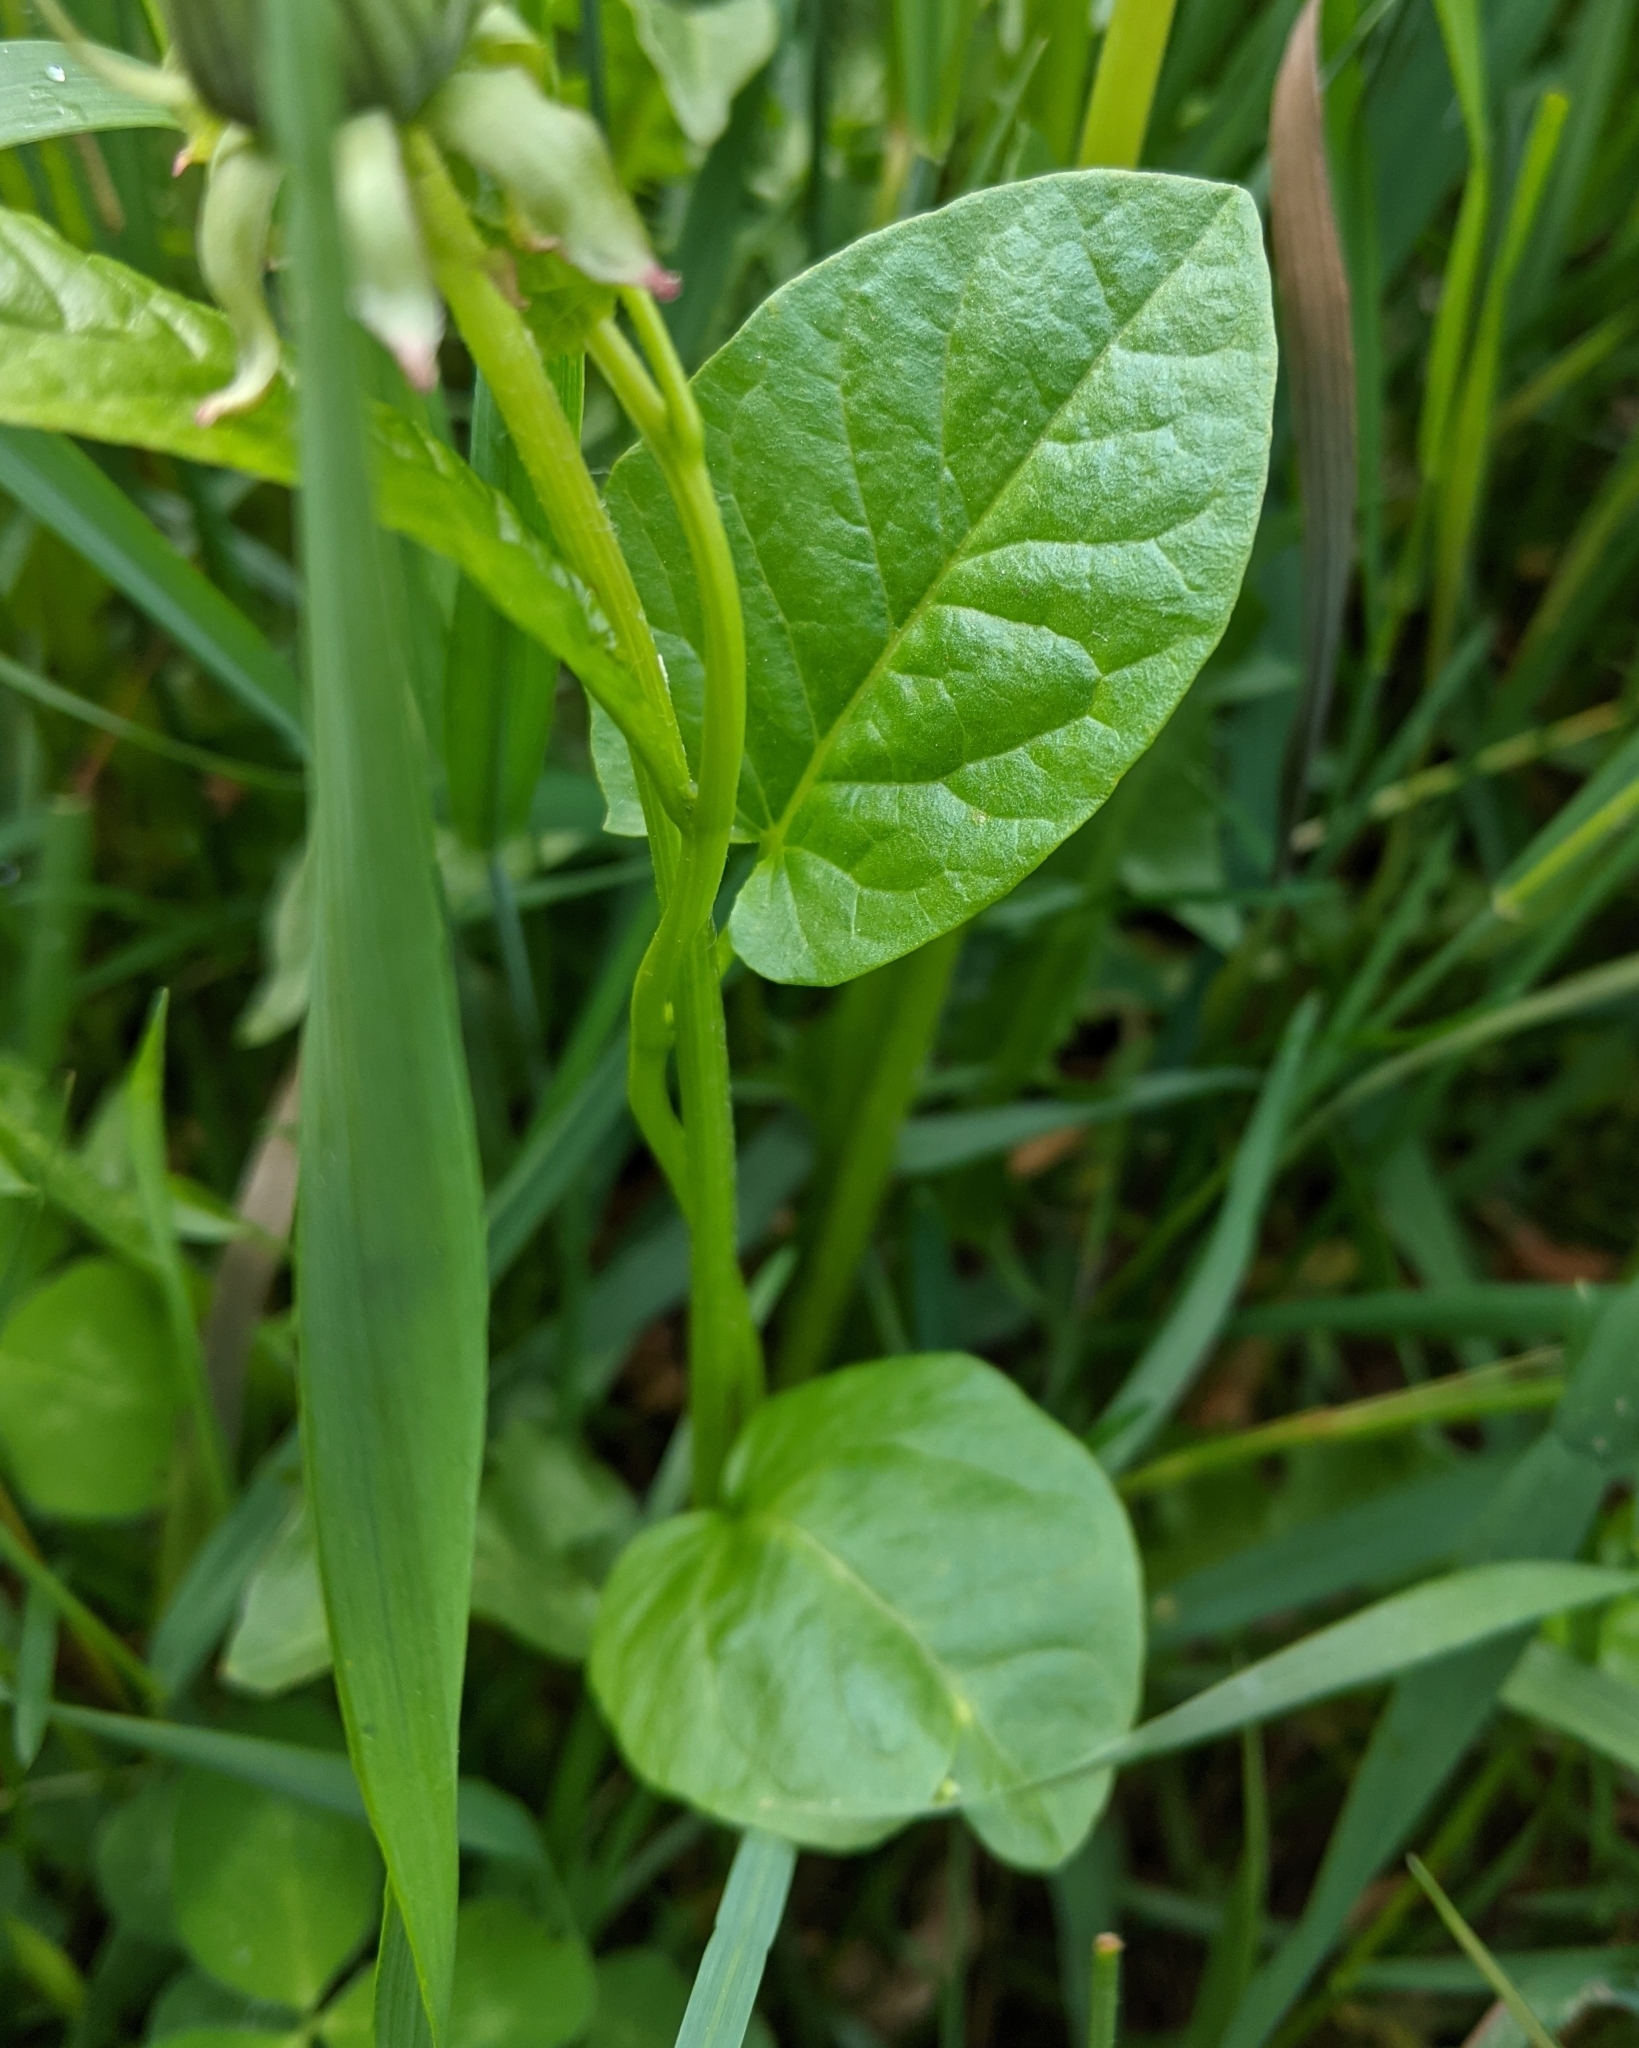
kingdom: Plantae
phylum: Tracheophyta
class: Magnoliopsida
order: Solanales
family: Convolvulaceae
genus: Convolvulus
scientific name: Convolvulus arvensis
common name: Field bindweed
